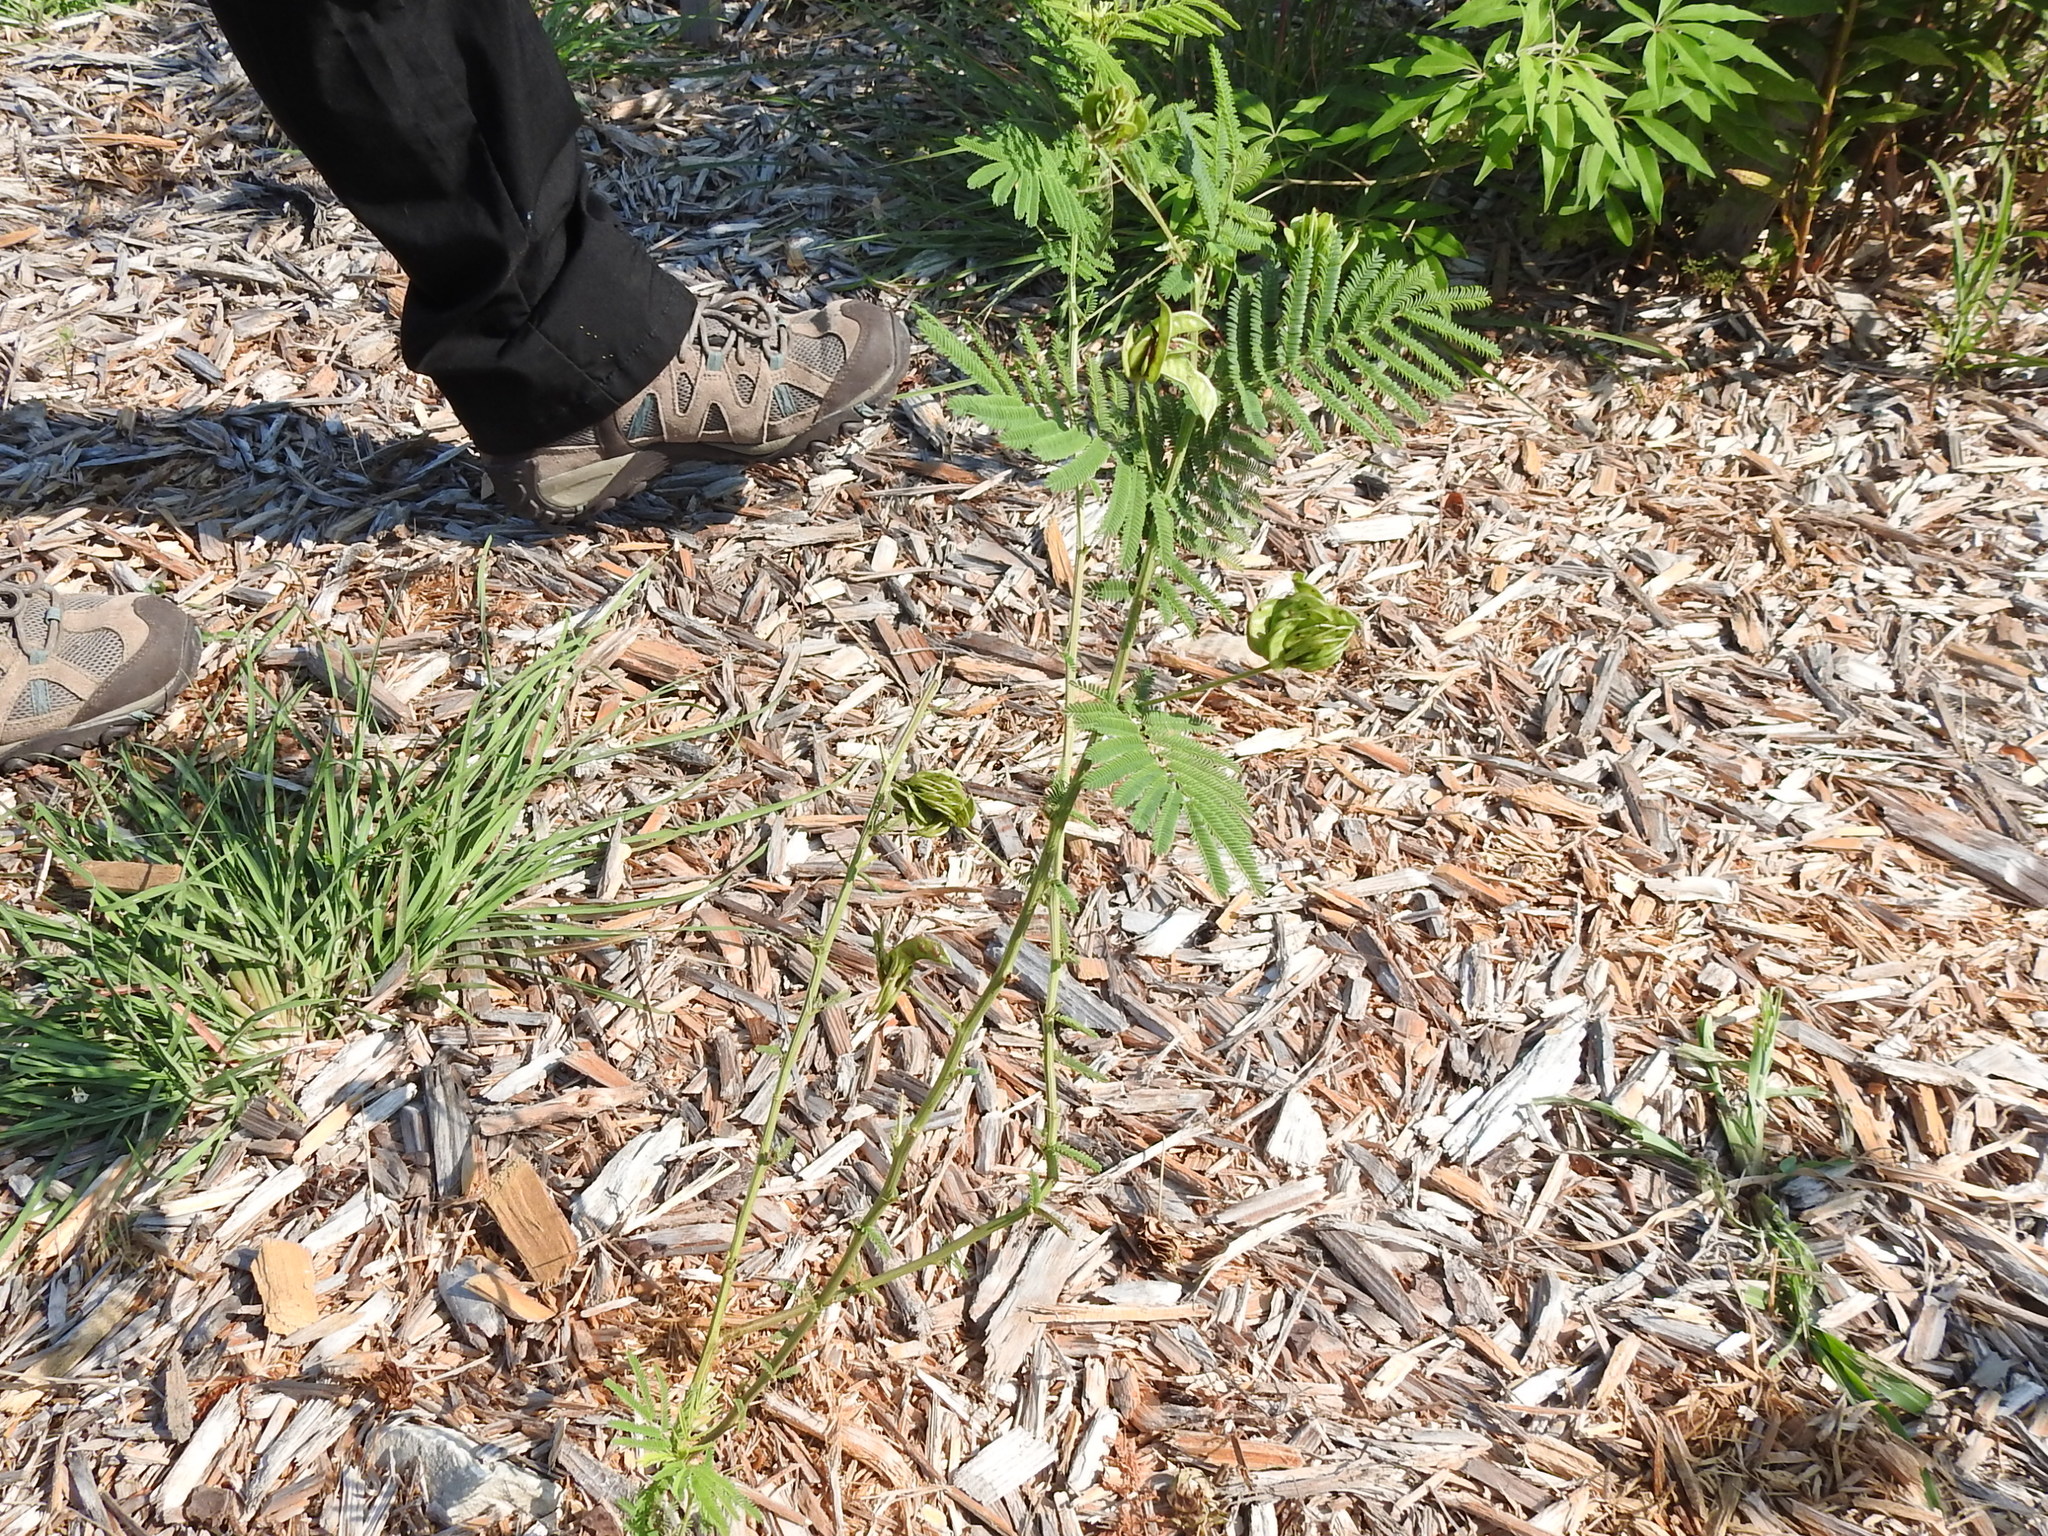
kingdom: Plantae
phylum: Tracheophyta
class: Magnoliopsida
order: Fabales
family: Fabaceae
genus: Desmanthus
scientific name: Desmanthus illinoensis
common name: Illinois bundle-flower
